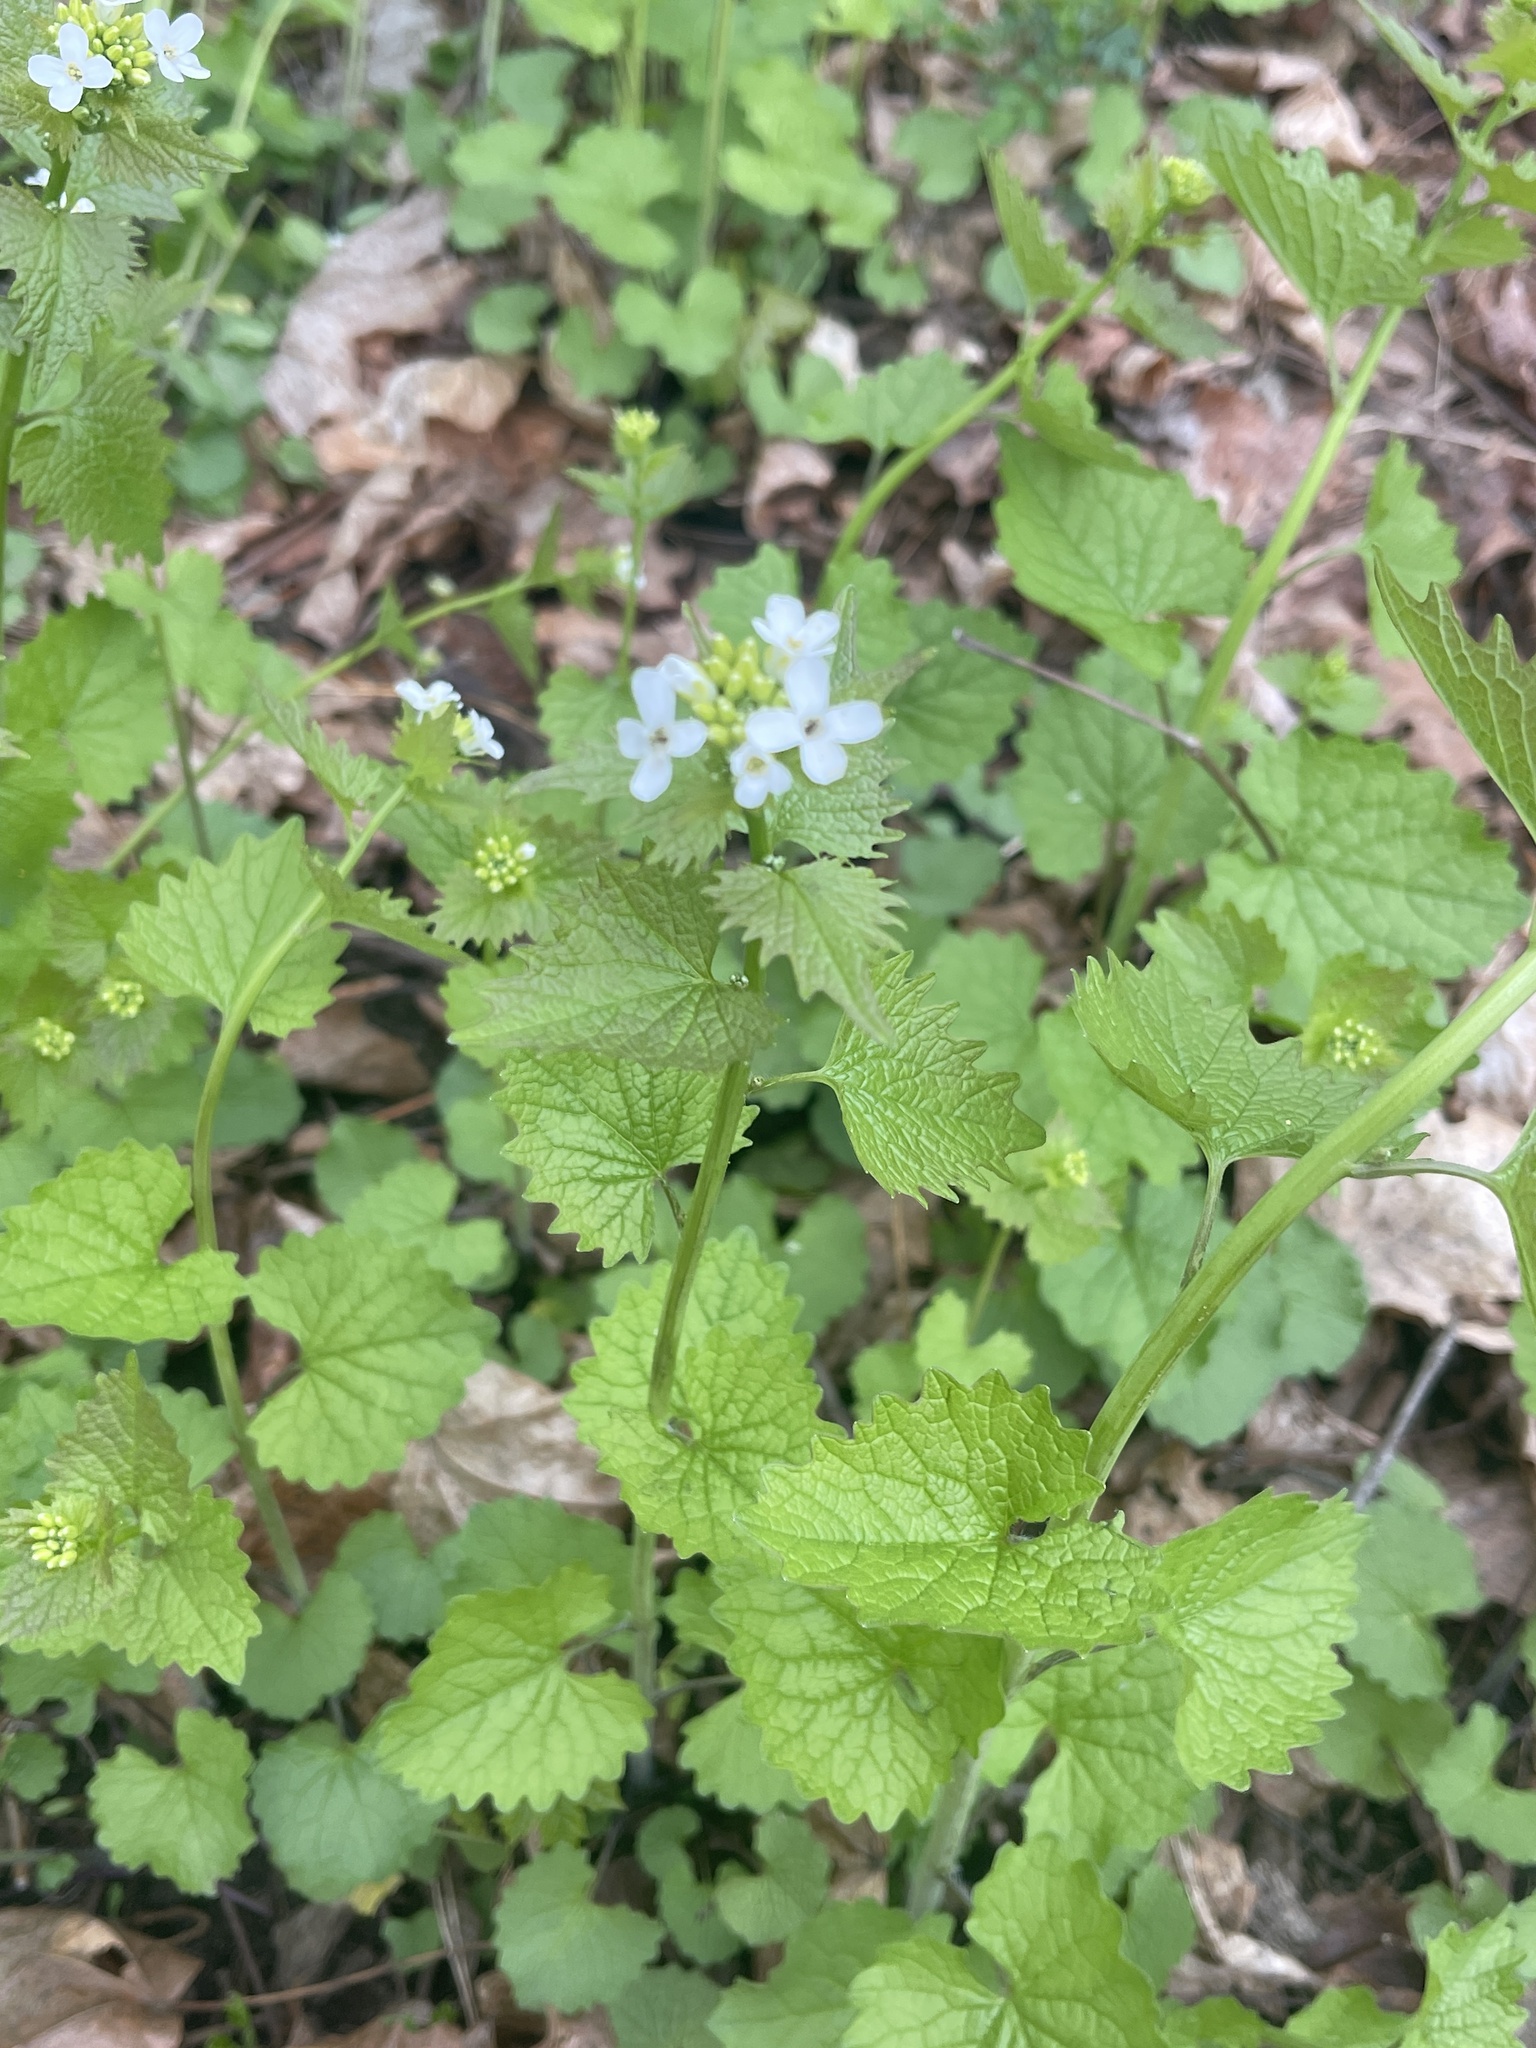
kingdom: Plantae
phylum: Tracheophyta
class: Magnoliopsida
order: Brassicales
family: Brassicaceae
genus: Alliaria
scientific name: Alliaria petiolata
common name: Garlic mustard
